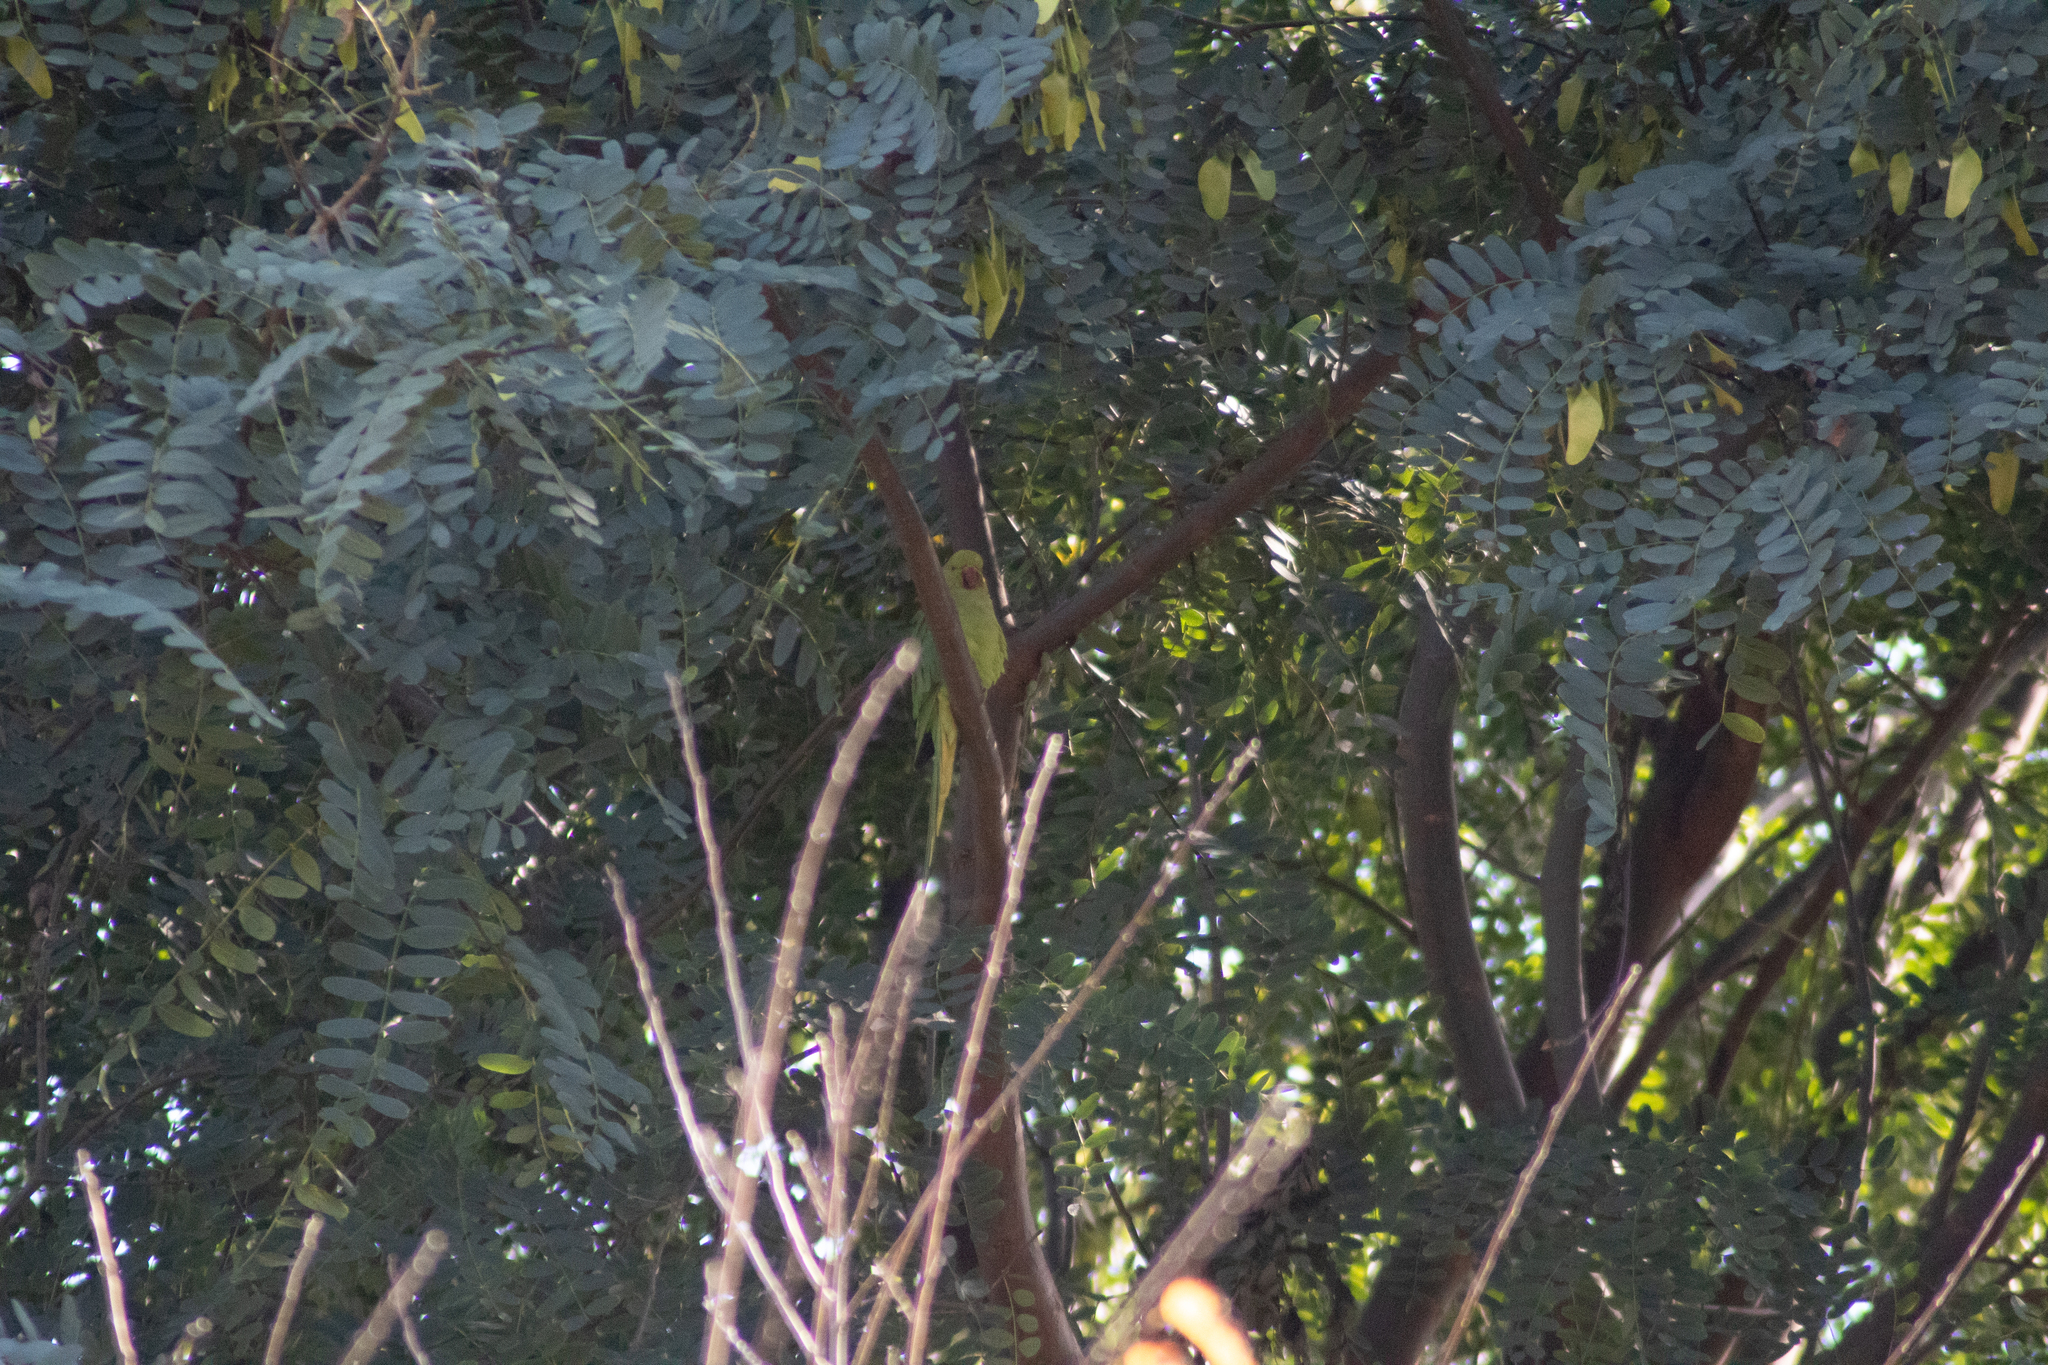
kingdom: Animalia
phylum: Chordata
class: Aves
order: Psittaciformes
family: Psittacidae
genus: Psittacula
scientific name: Psittacula krameri
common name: Rose-ringed parakeet
